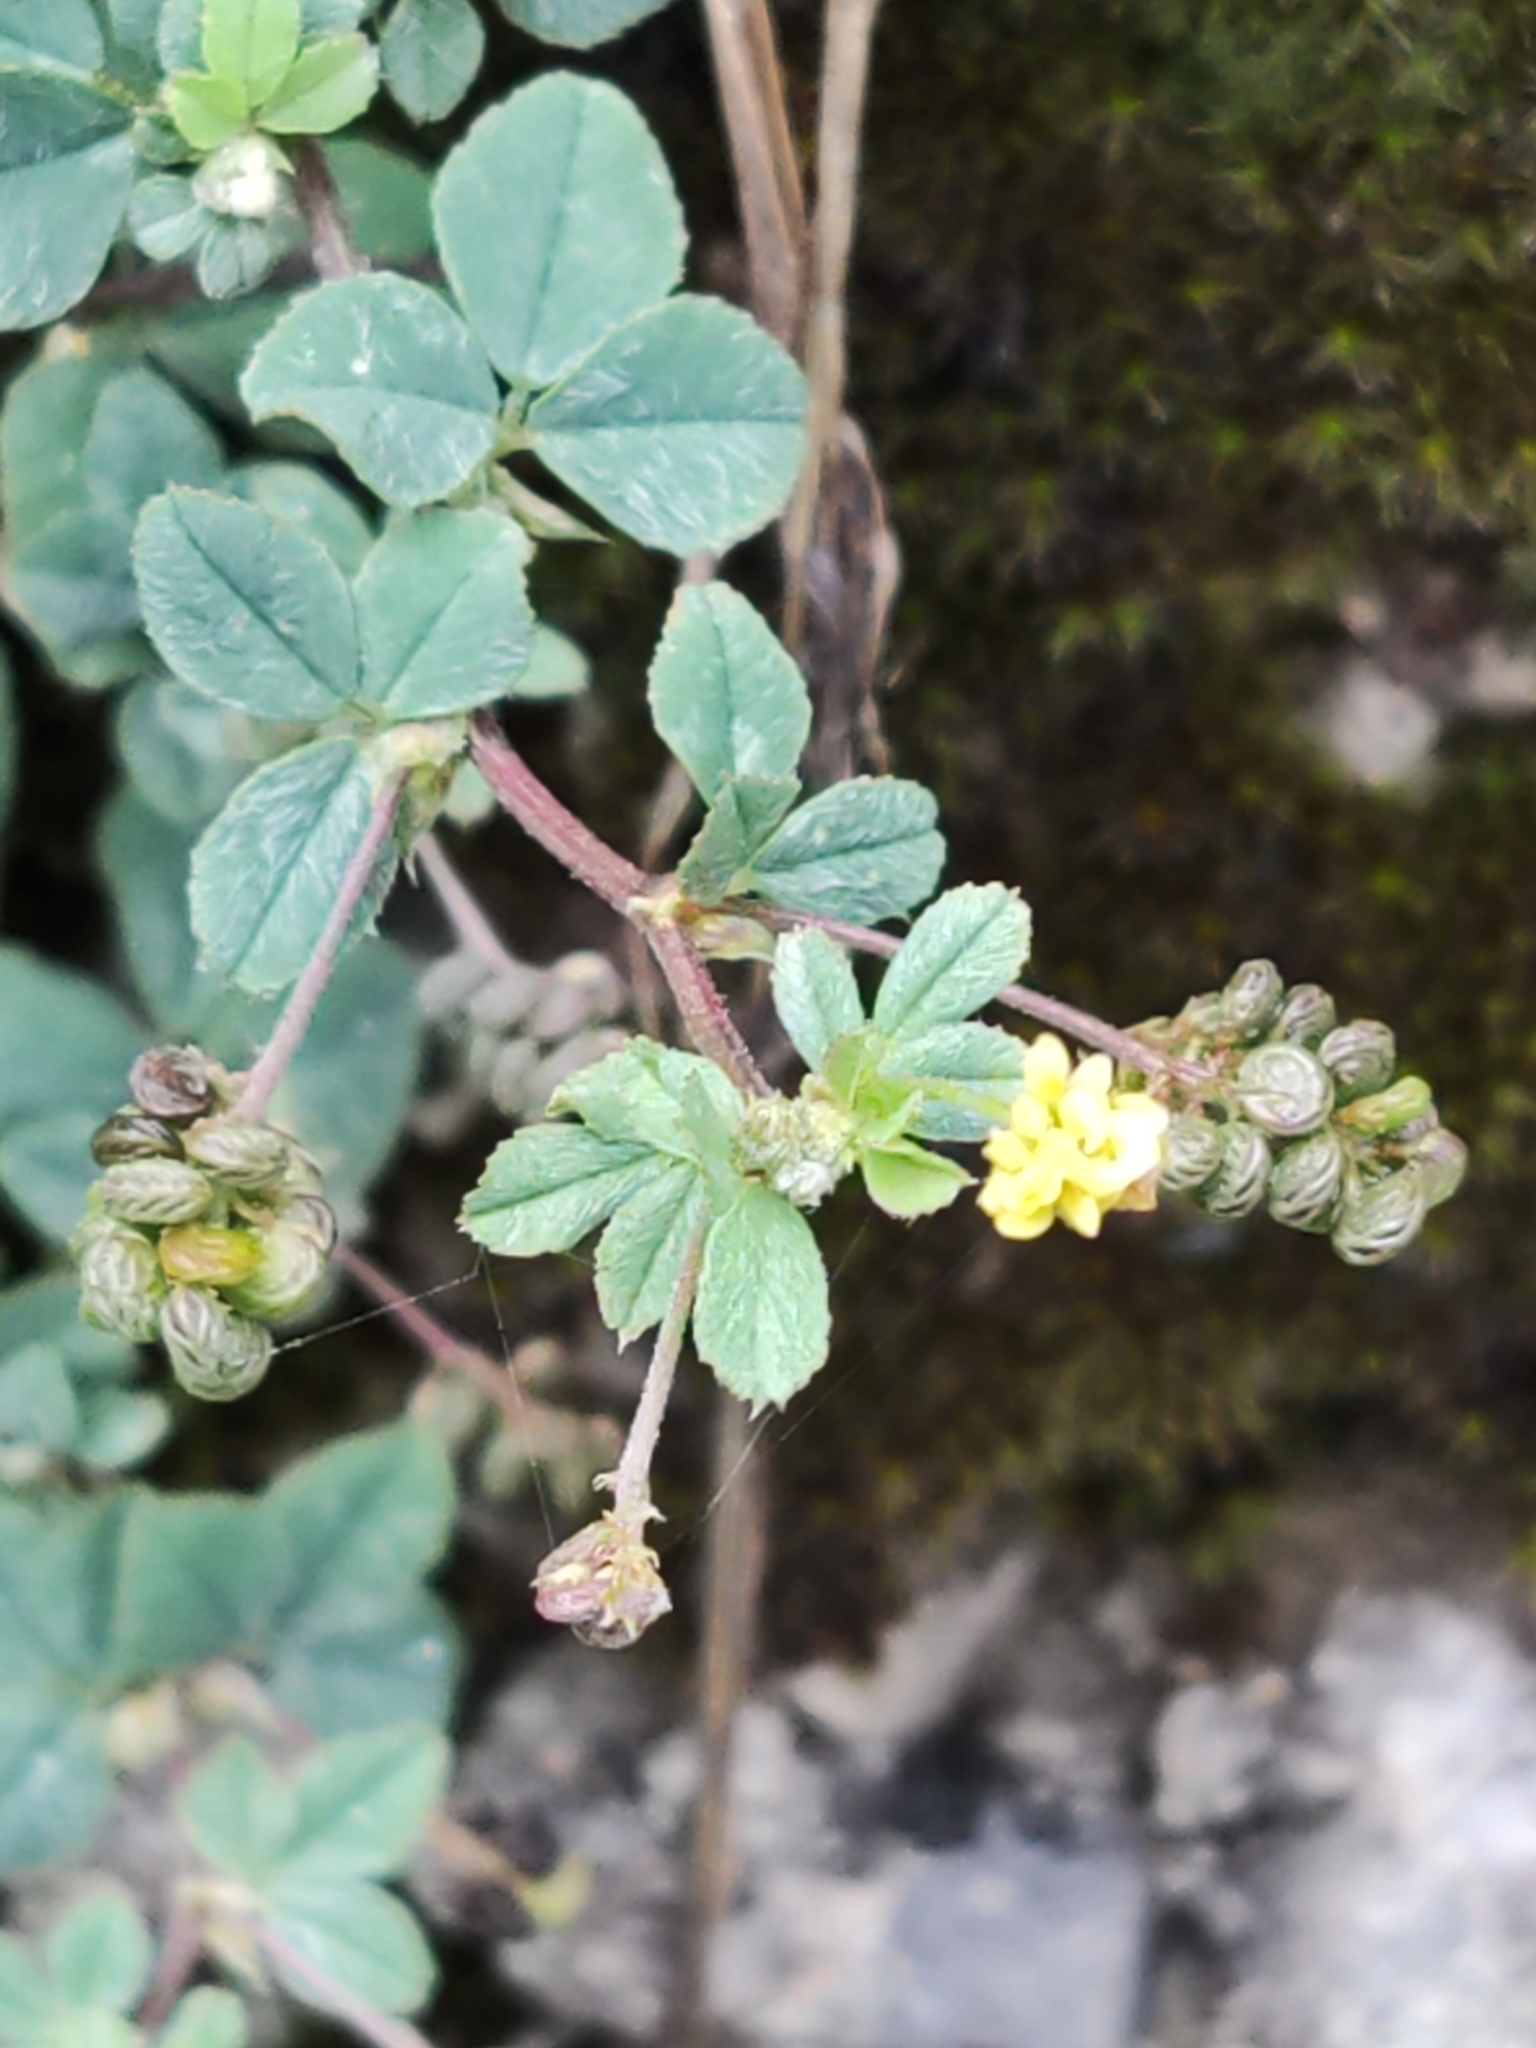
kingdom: Plantae
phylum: Tracheophyta
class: Magnoliopsida
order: Fabales
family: Fabaceae
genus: Medicago
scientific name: Medicago lupulina
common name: Black medick
